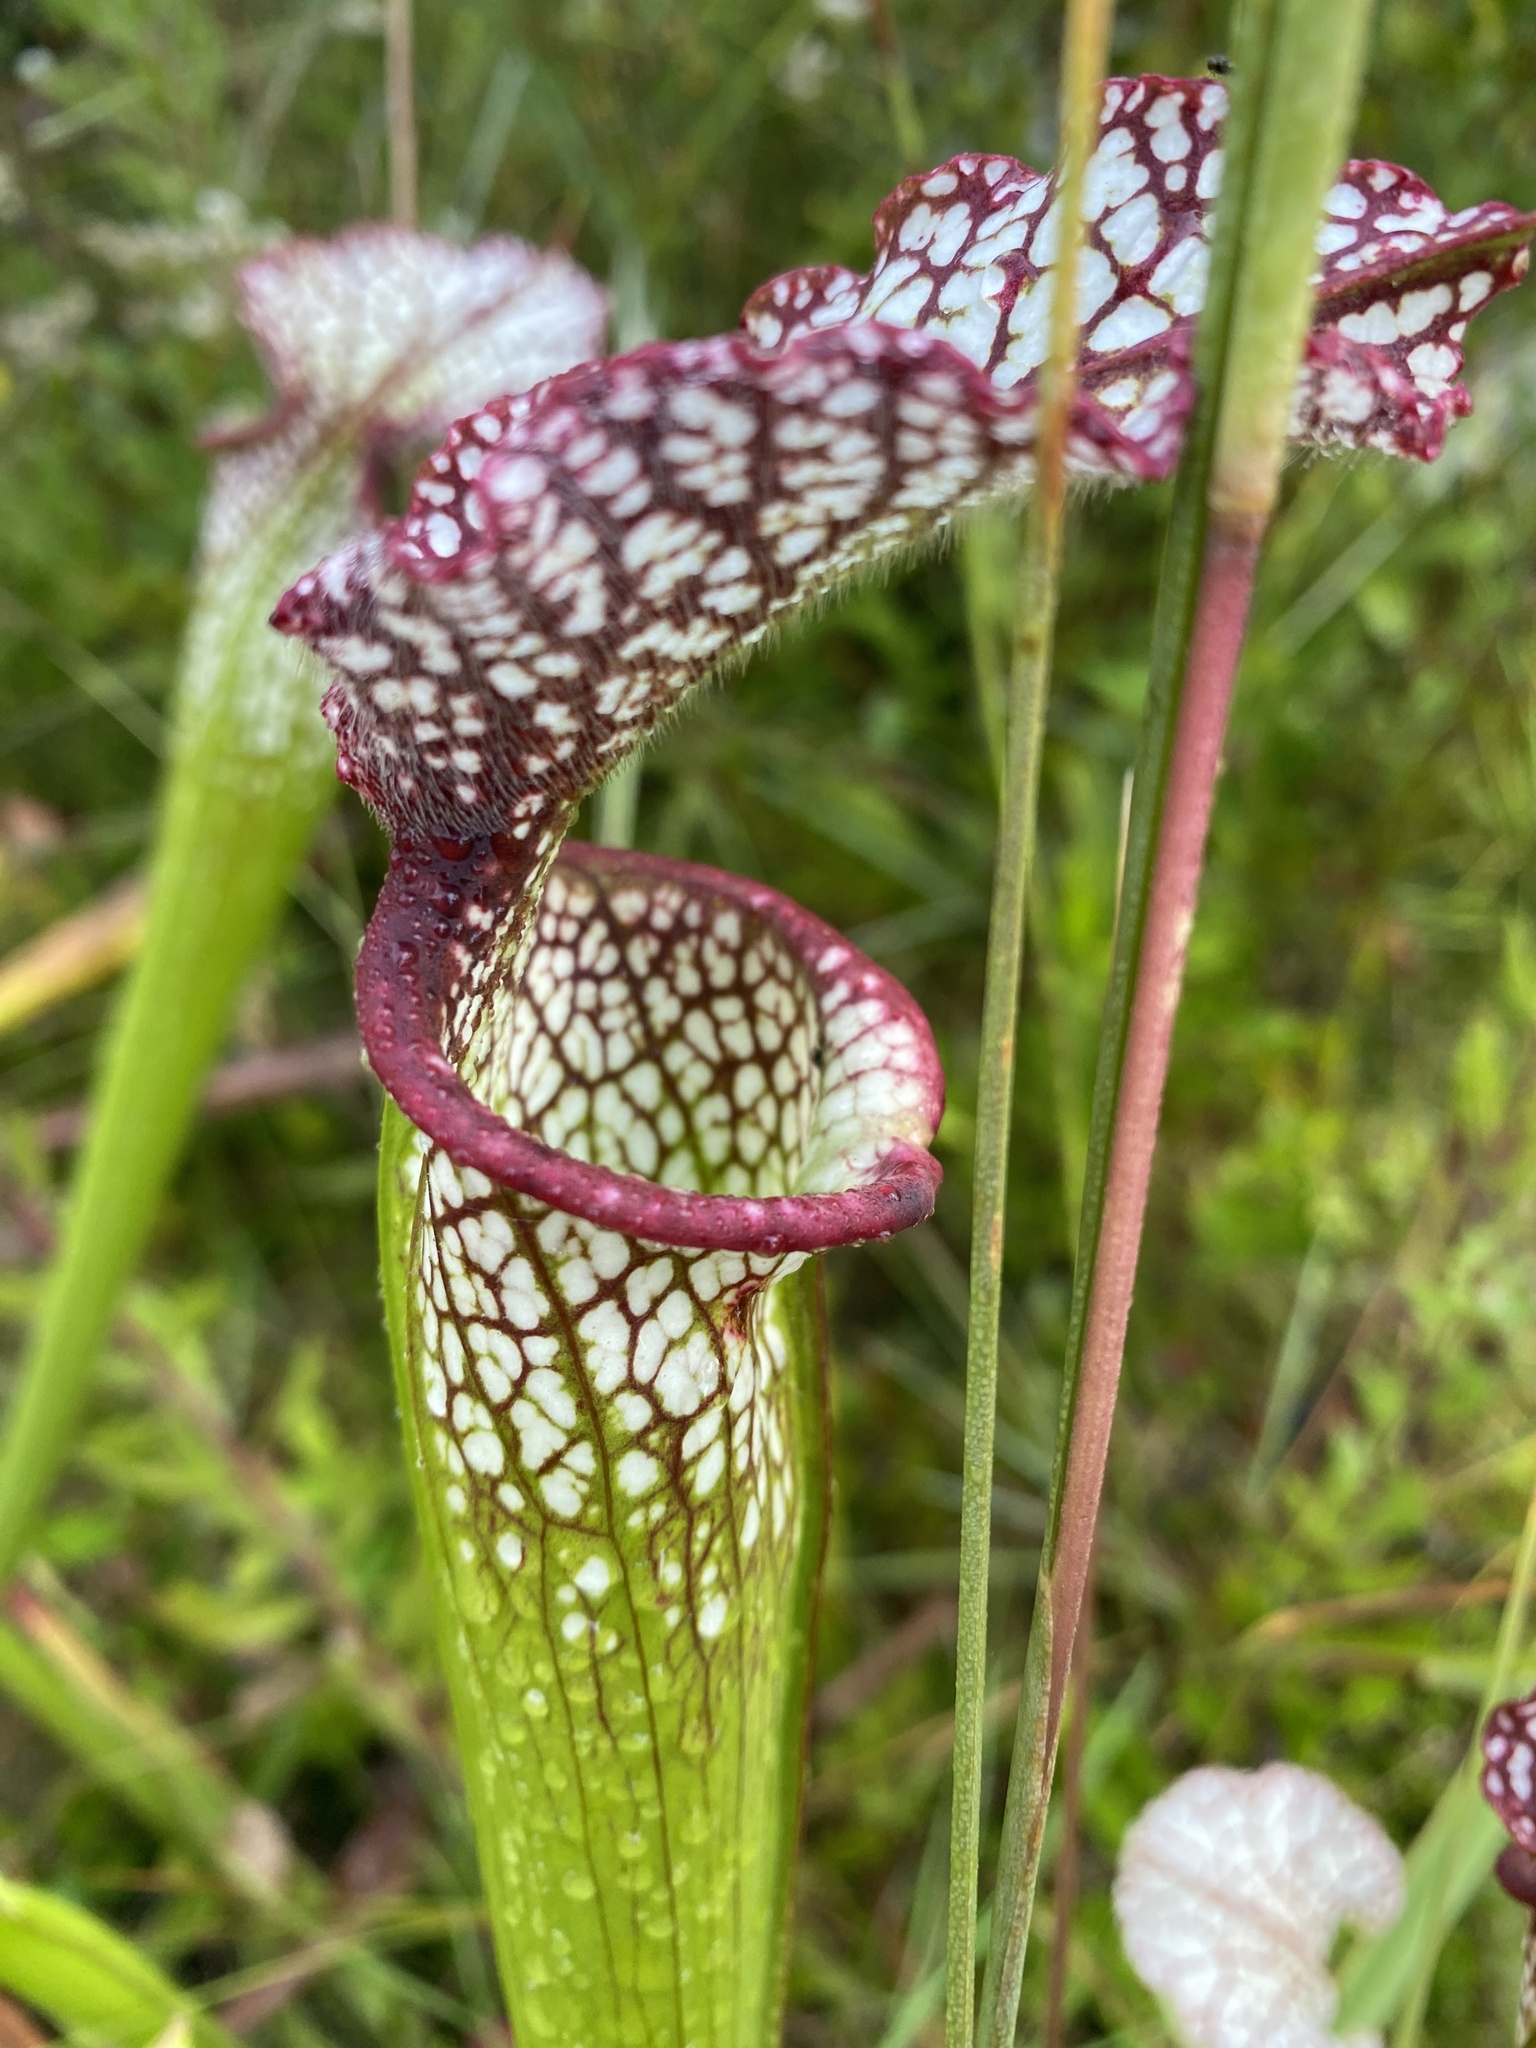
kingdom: Plantae
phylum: Tracheophyta
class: Magnoliopsida
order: Ericales
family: Sarraceniaceae
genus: Sarracenia
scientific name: Sarracenia leucophylla
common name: Purple trumpetleaf
